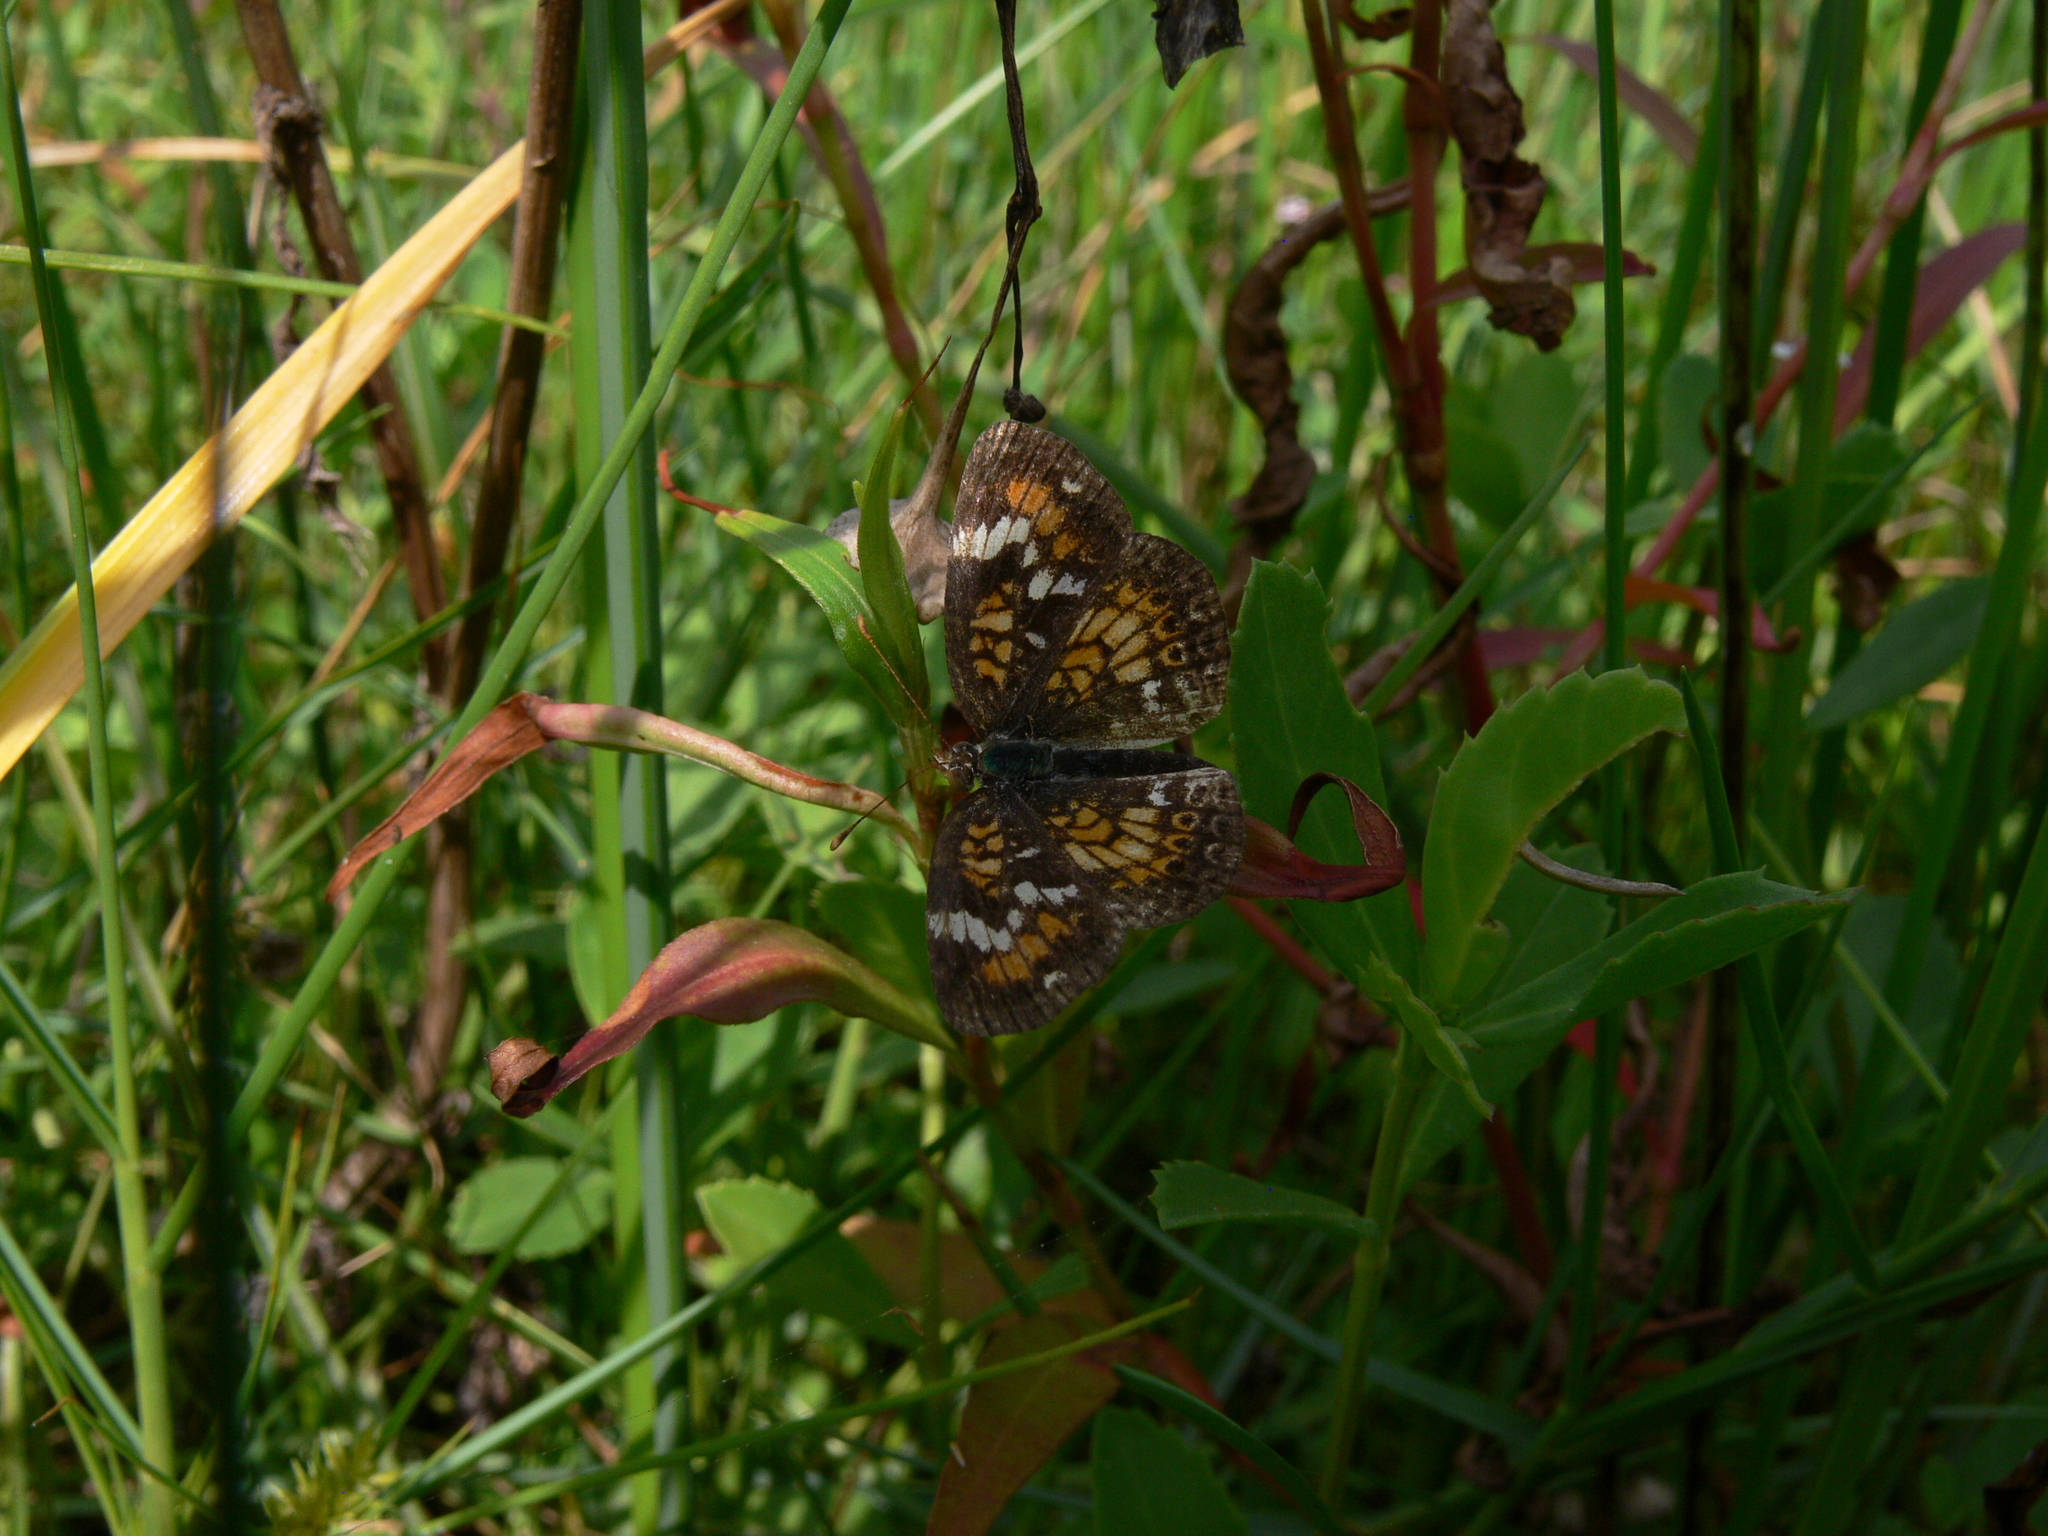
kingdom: Animalia
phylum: Arthropoda
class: Insecta
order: Lepidoptera
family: Nymphalidae
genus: Phyciodes
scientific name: Phyciodes phaon
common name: Phaon crescent
